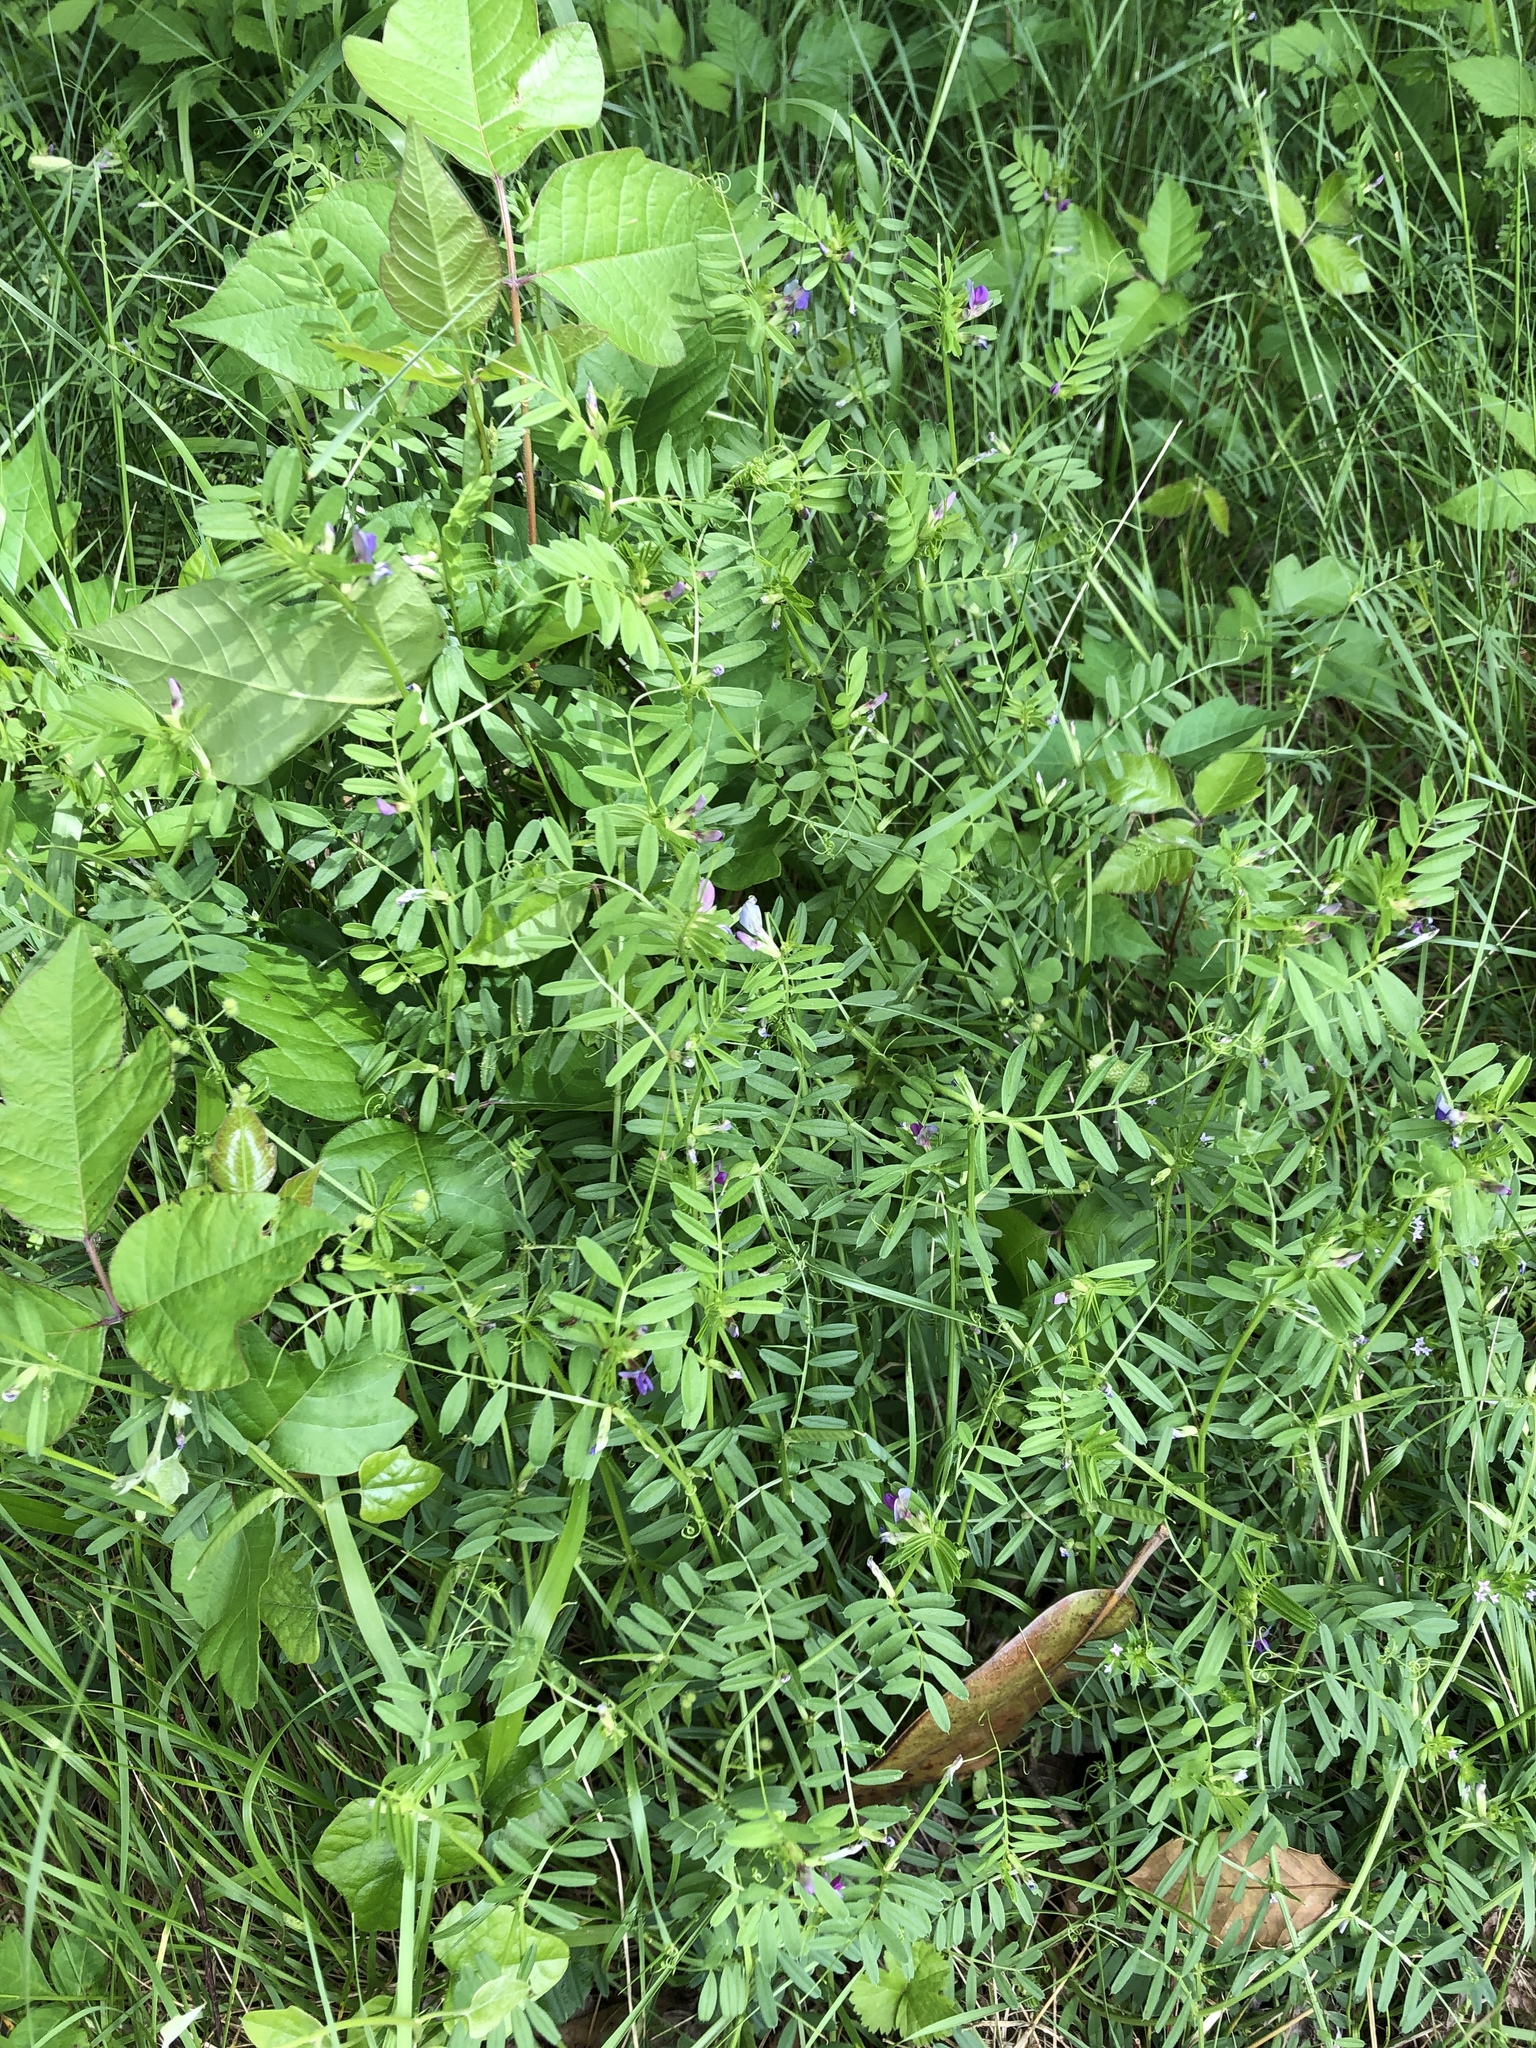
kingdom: Plantae
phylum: Tracheophyta
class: Magnoliopsida
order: Fabales
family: Fabaceae
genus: Vicia
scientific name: Vicia sativa
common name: Garden vetch
